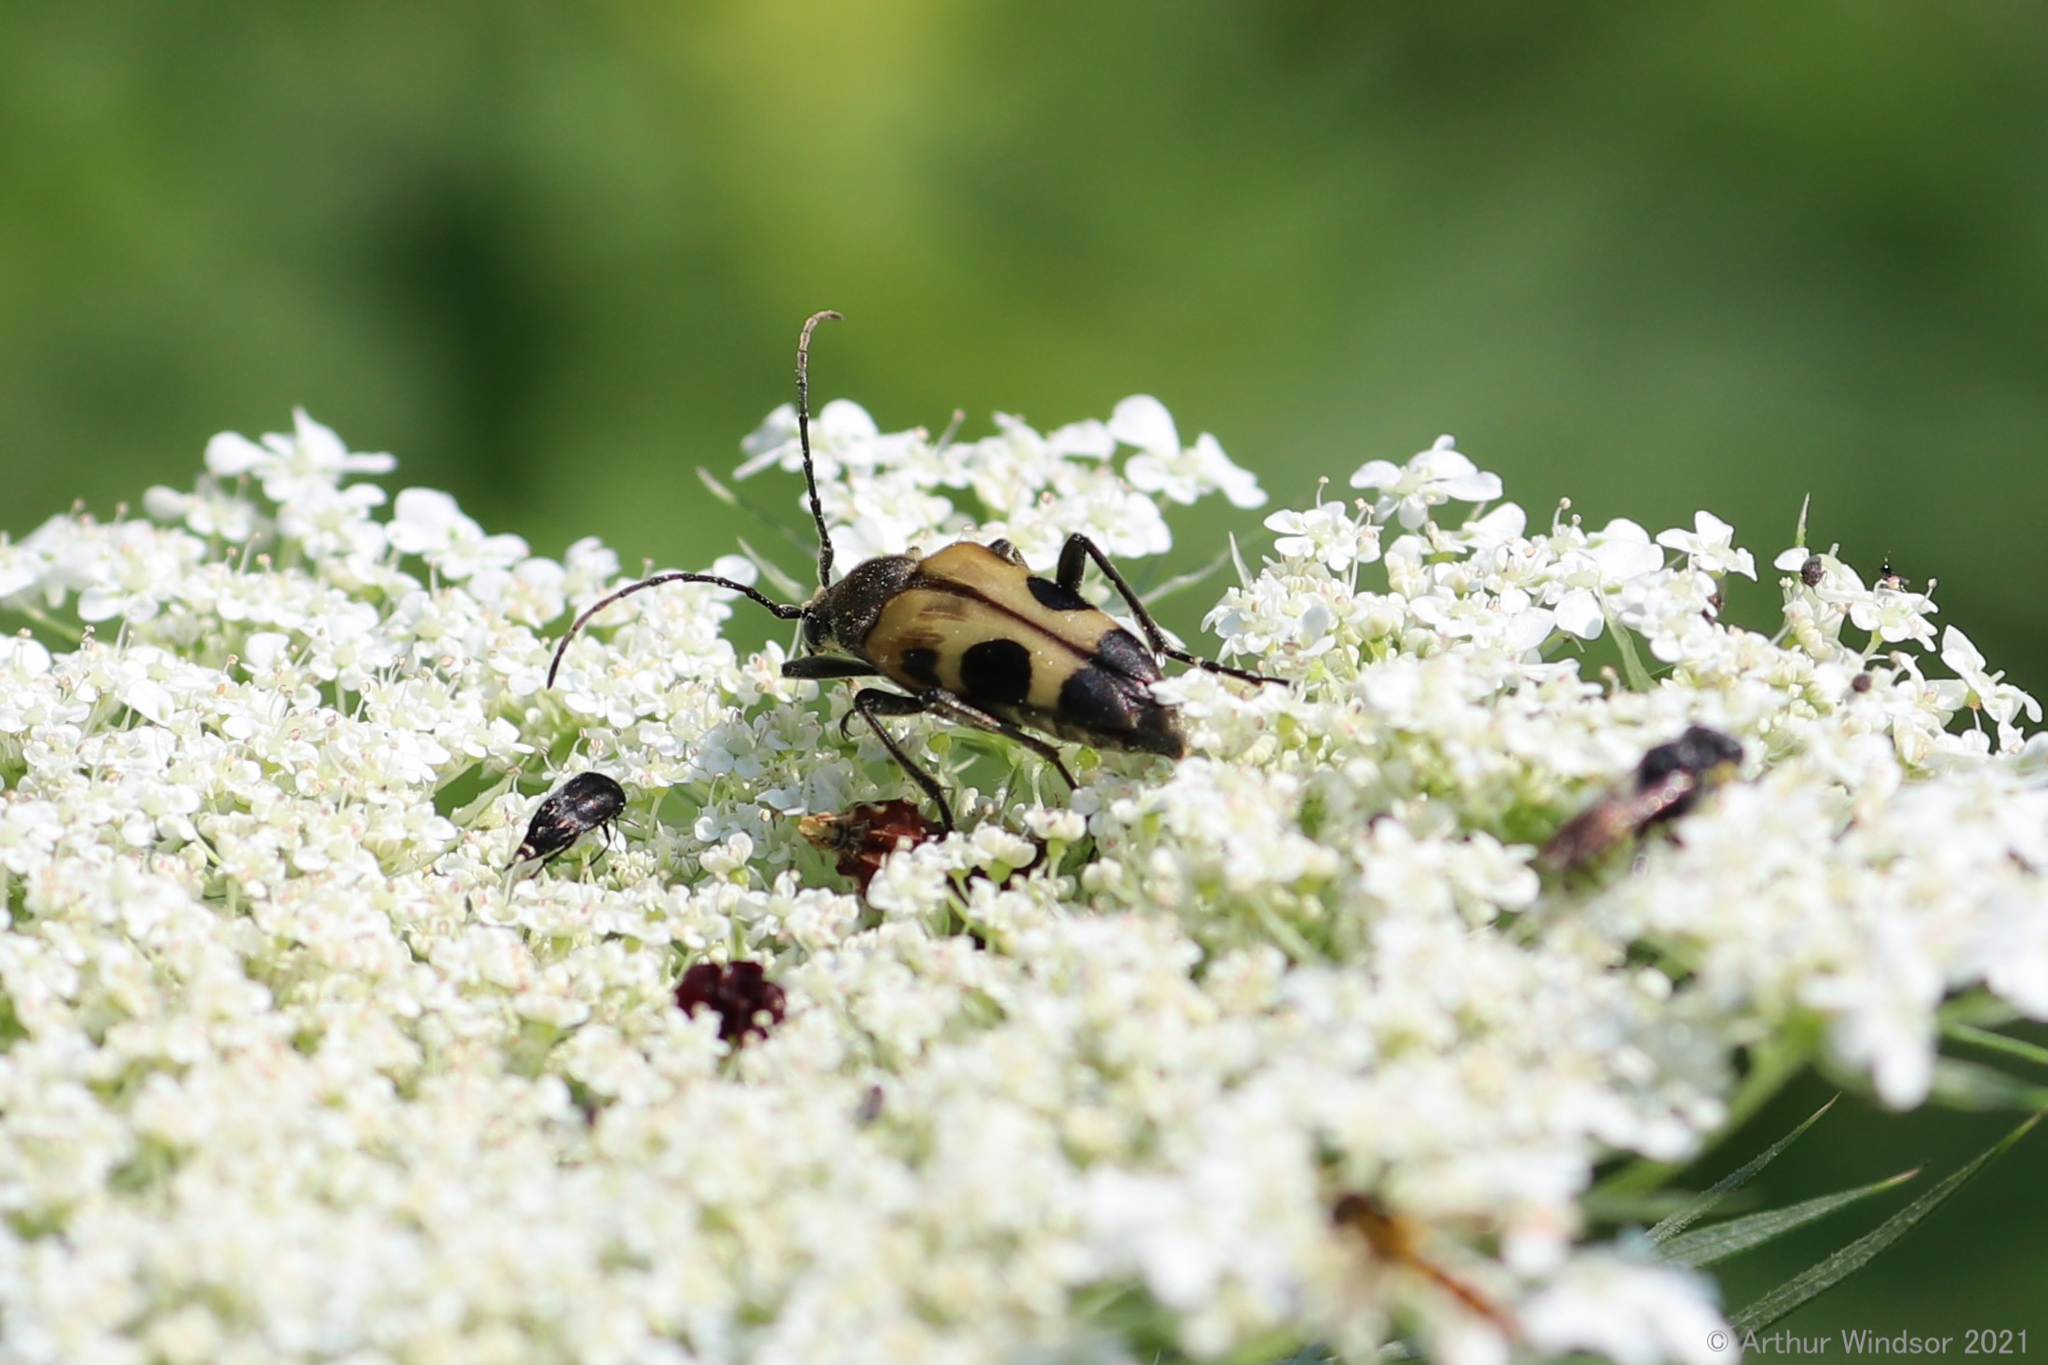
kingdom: Animalia
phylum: Arthropoda
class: Insecta
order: Coleoptera
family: Cerambycidae
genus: Judolia
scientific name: Judolia cordifera
